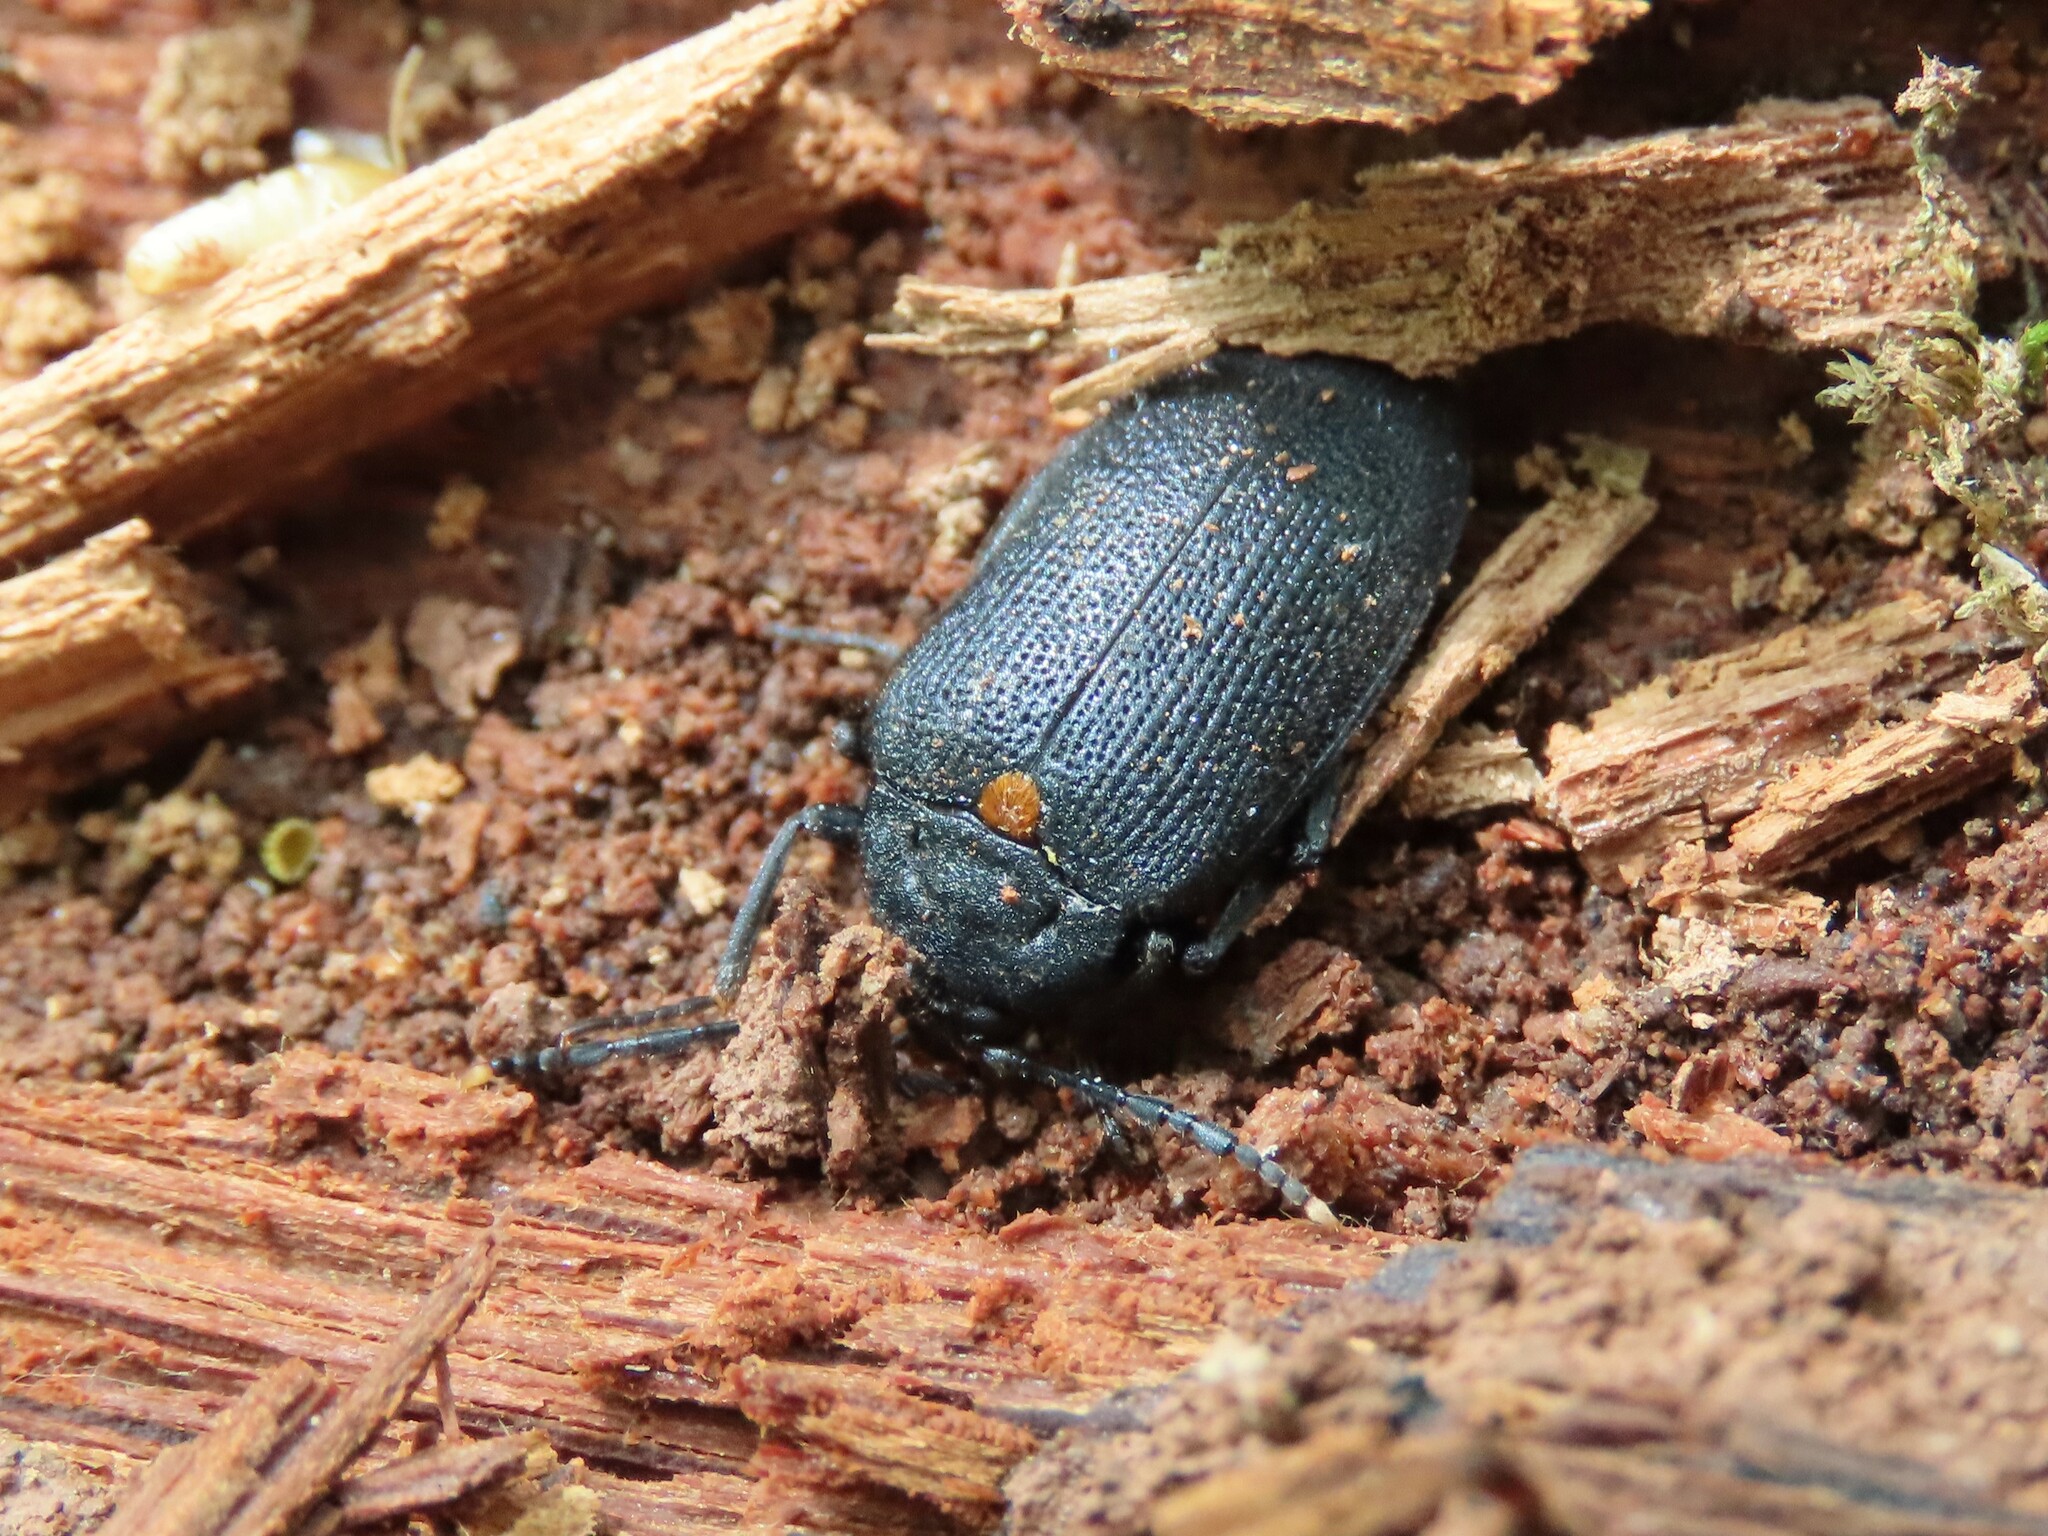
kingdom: Animalia
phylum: Arthropoda
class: Insecta
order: Coleoptera
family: Tetratomidae
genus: Penthe
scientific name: Penthe obliquata
